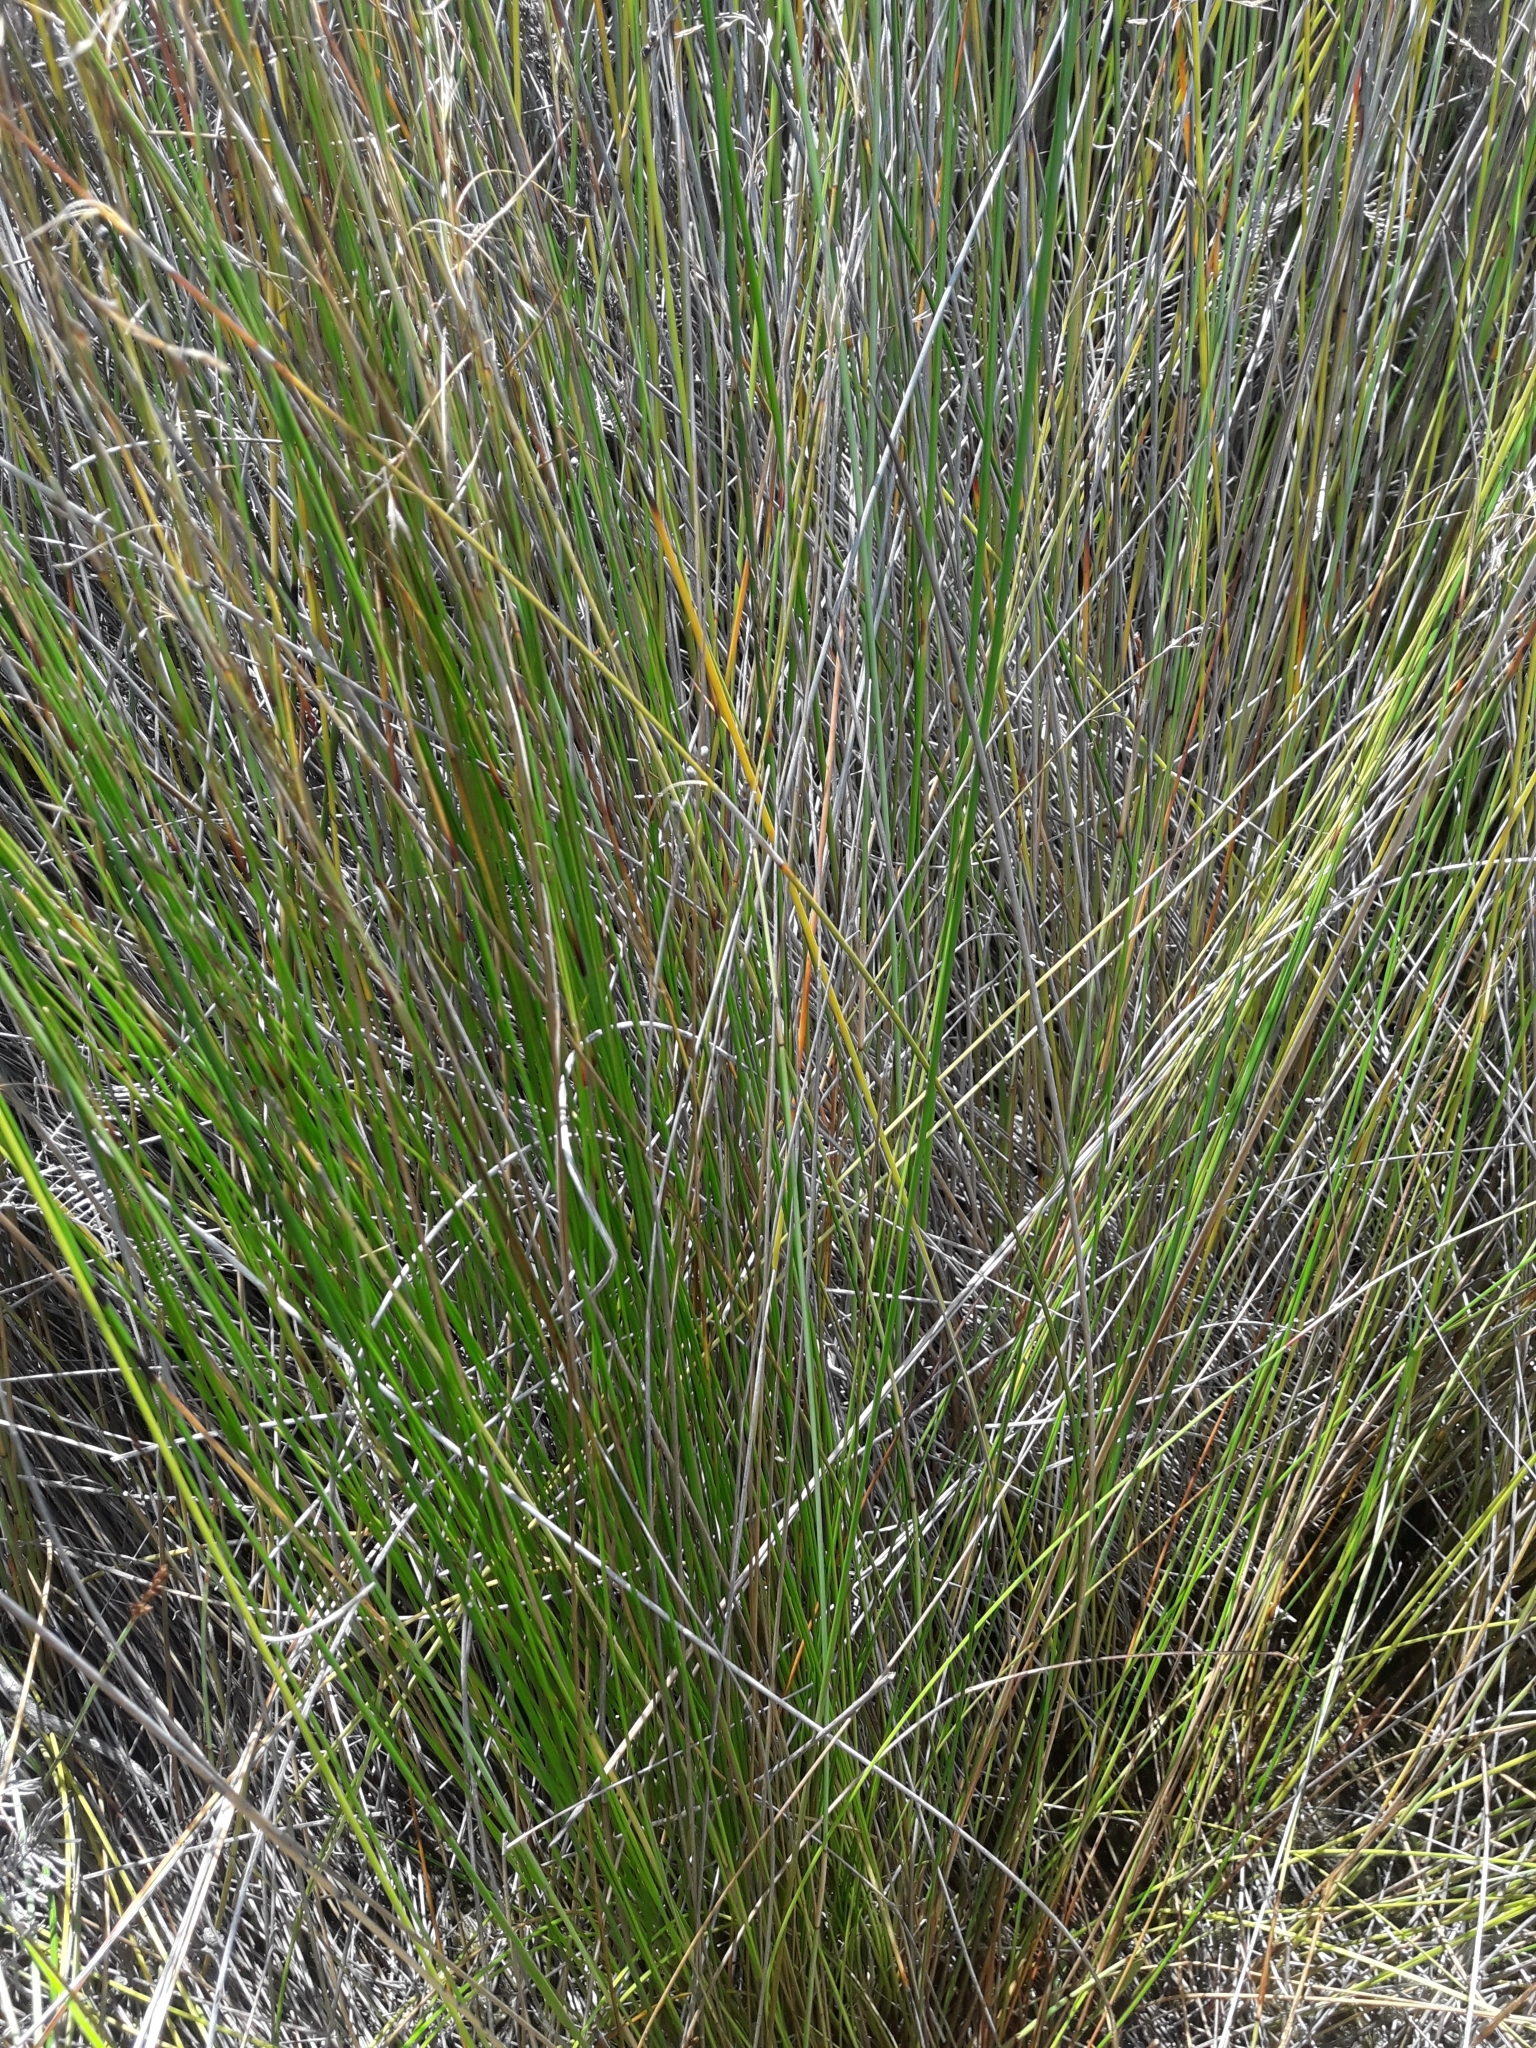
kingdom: Plantae
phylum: Tracheophyta
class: Liliopsida
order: Poales
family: Cyperaceae
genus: Schoenus
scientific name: Schoenus carsei
